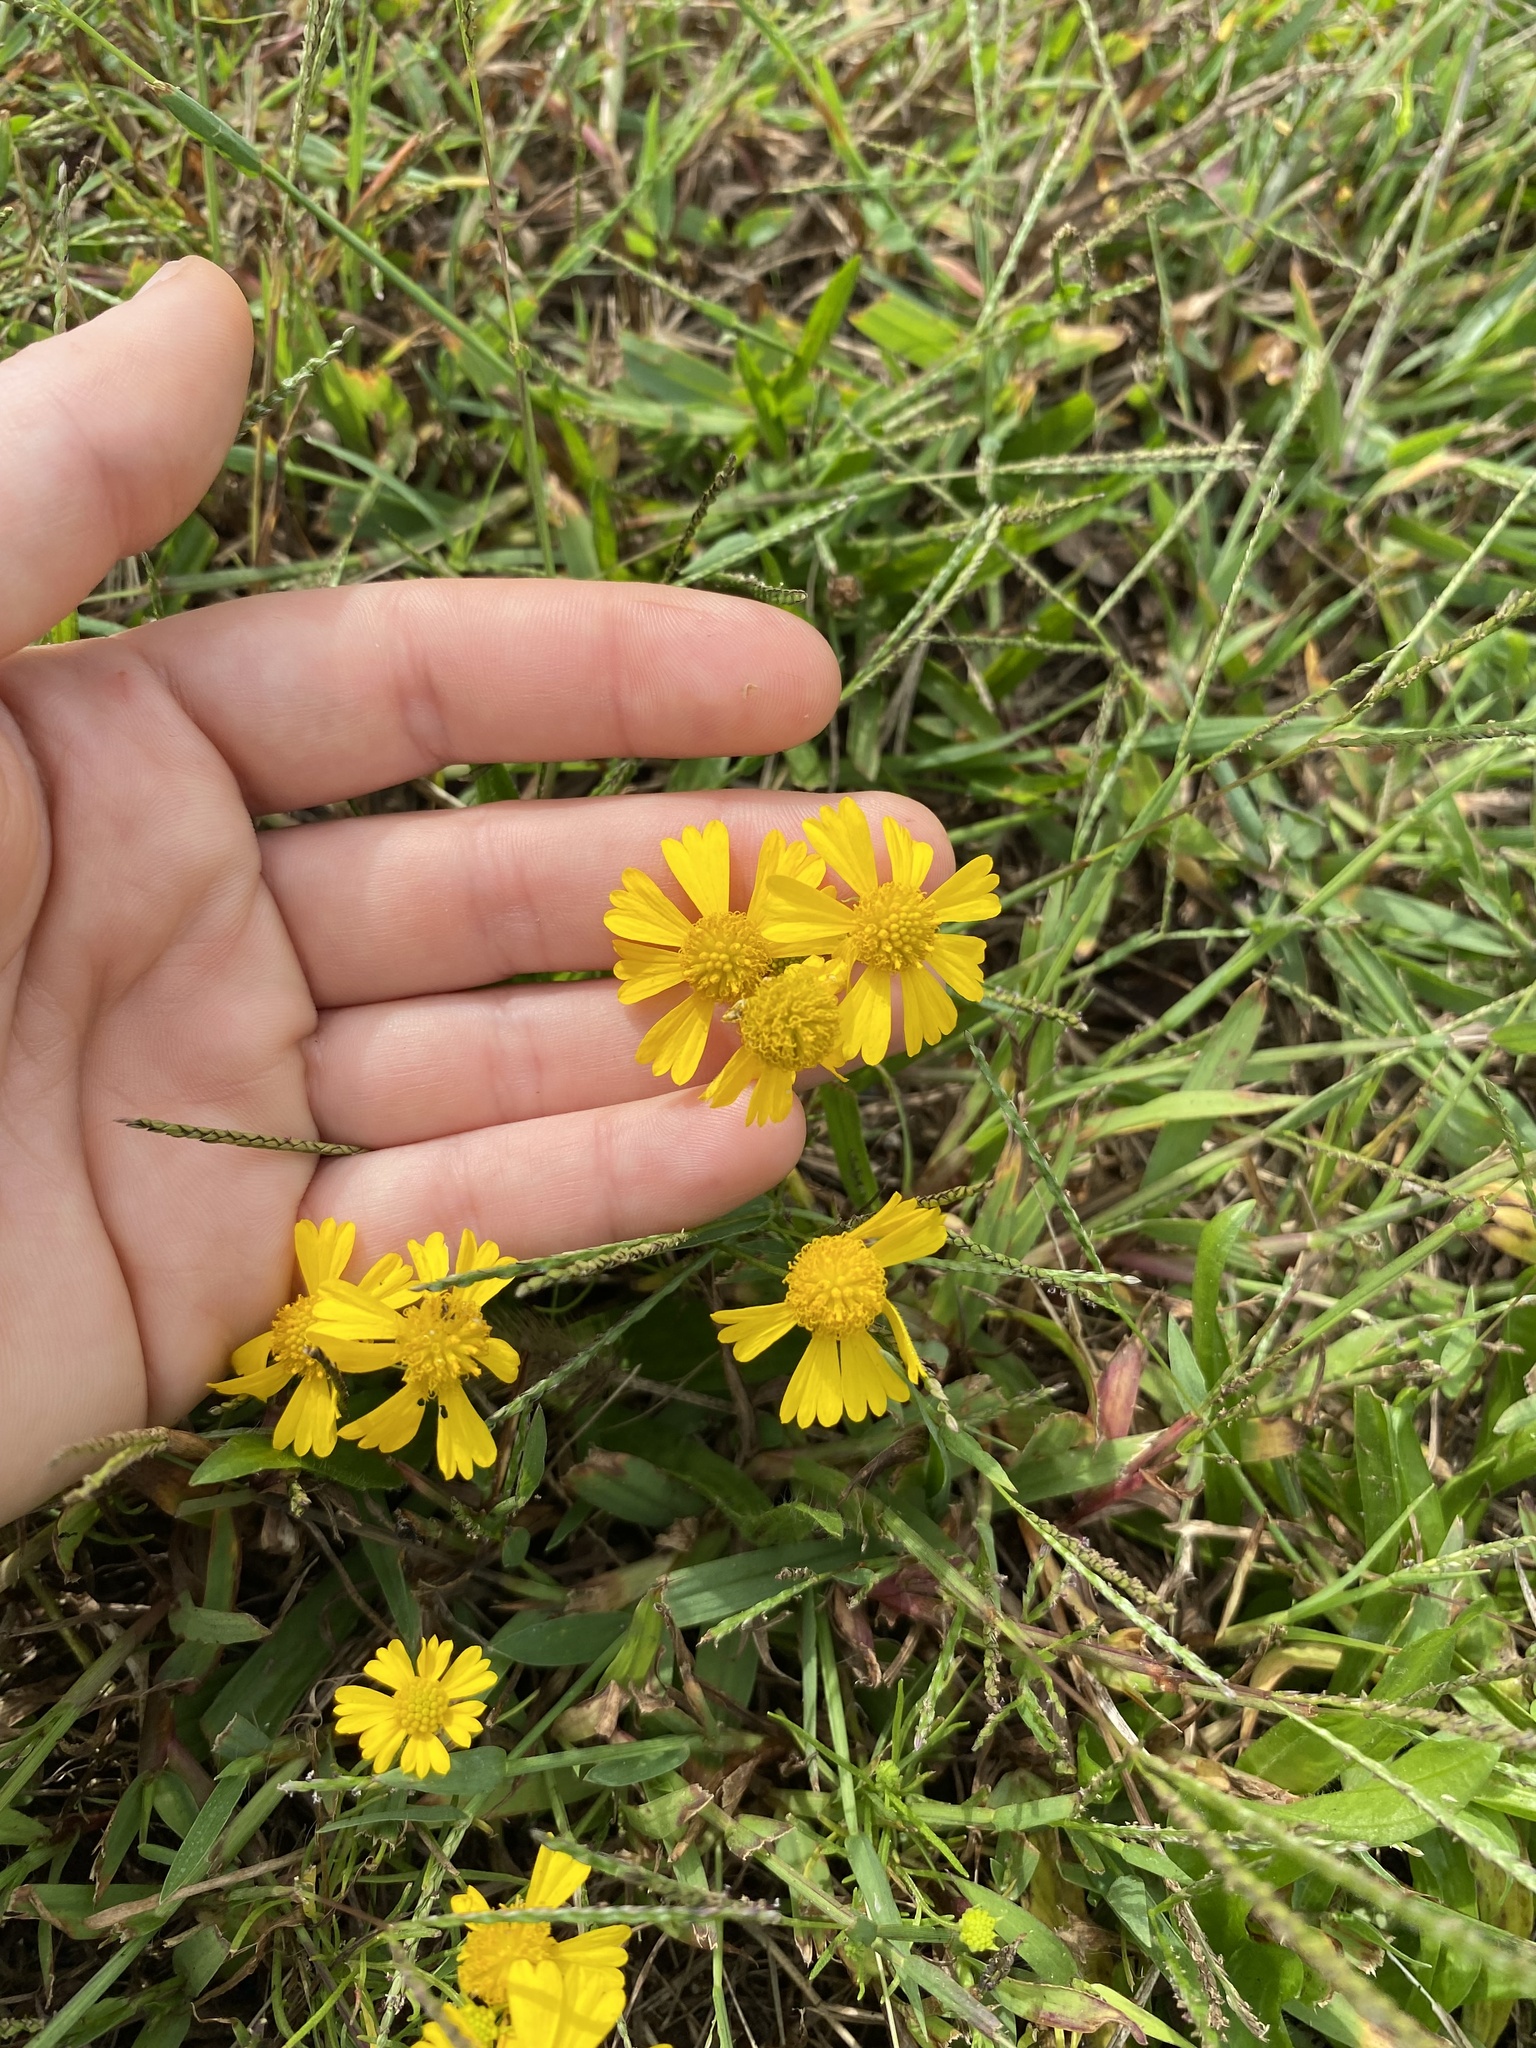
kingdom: Plantae
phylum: Tracheophyta
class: Magnoliopsida
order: Asterales
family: Asteraceae
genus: Helenium
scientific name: Helenium amarum
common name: Bitter sneezeweed
